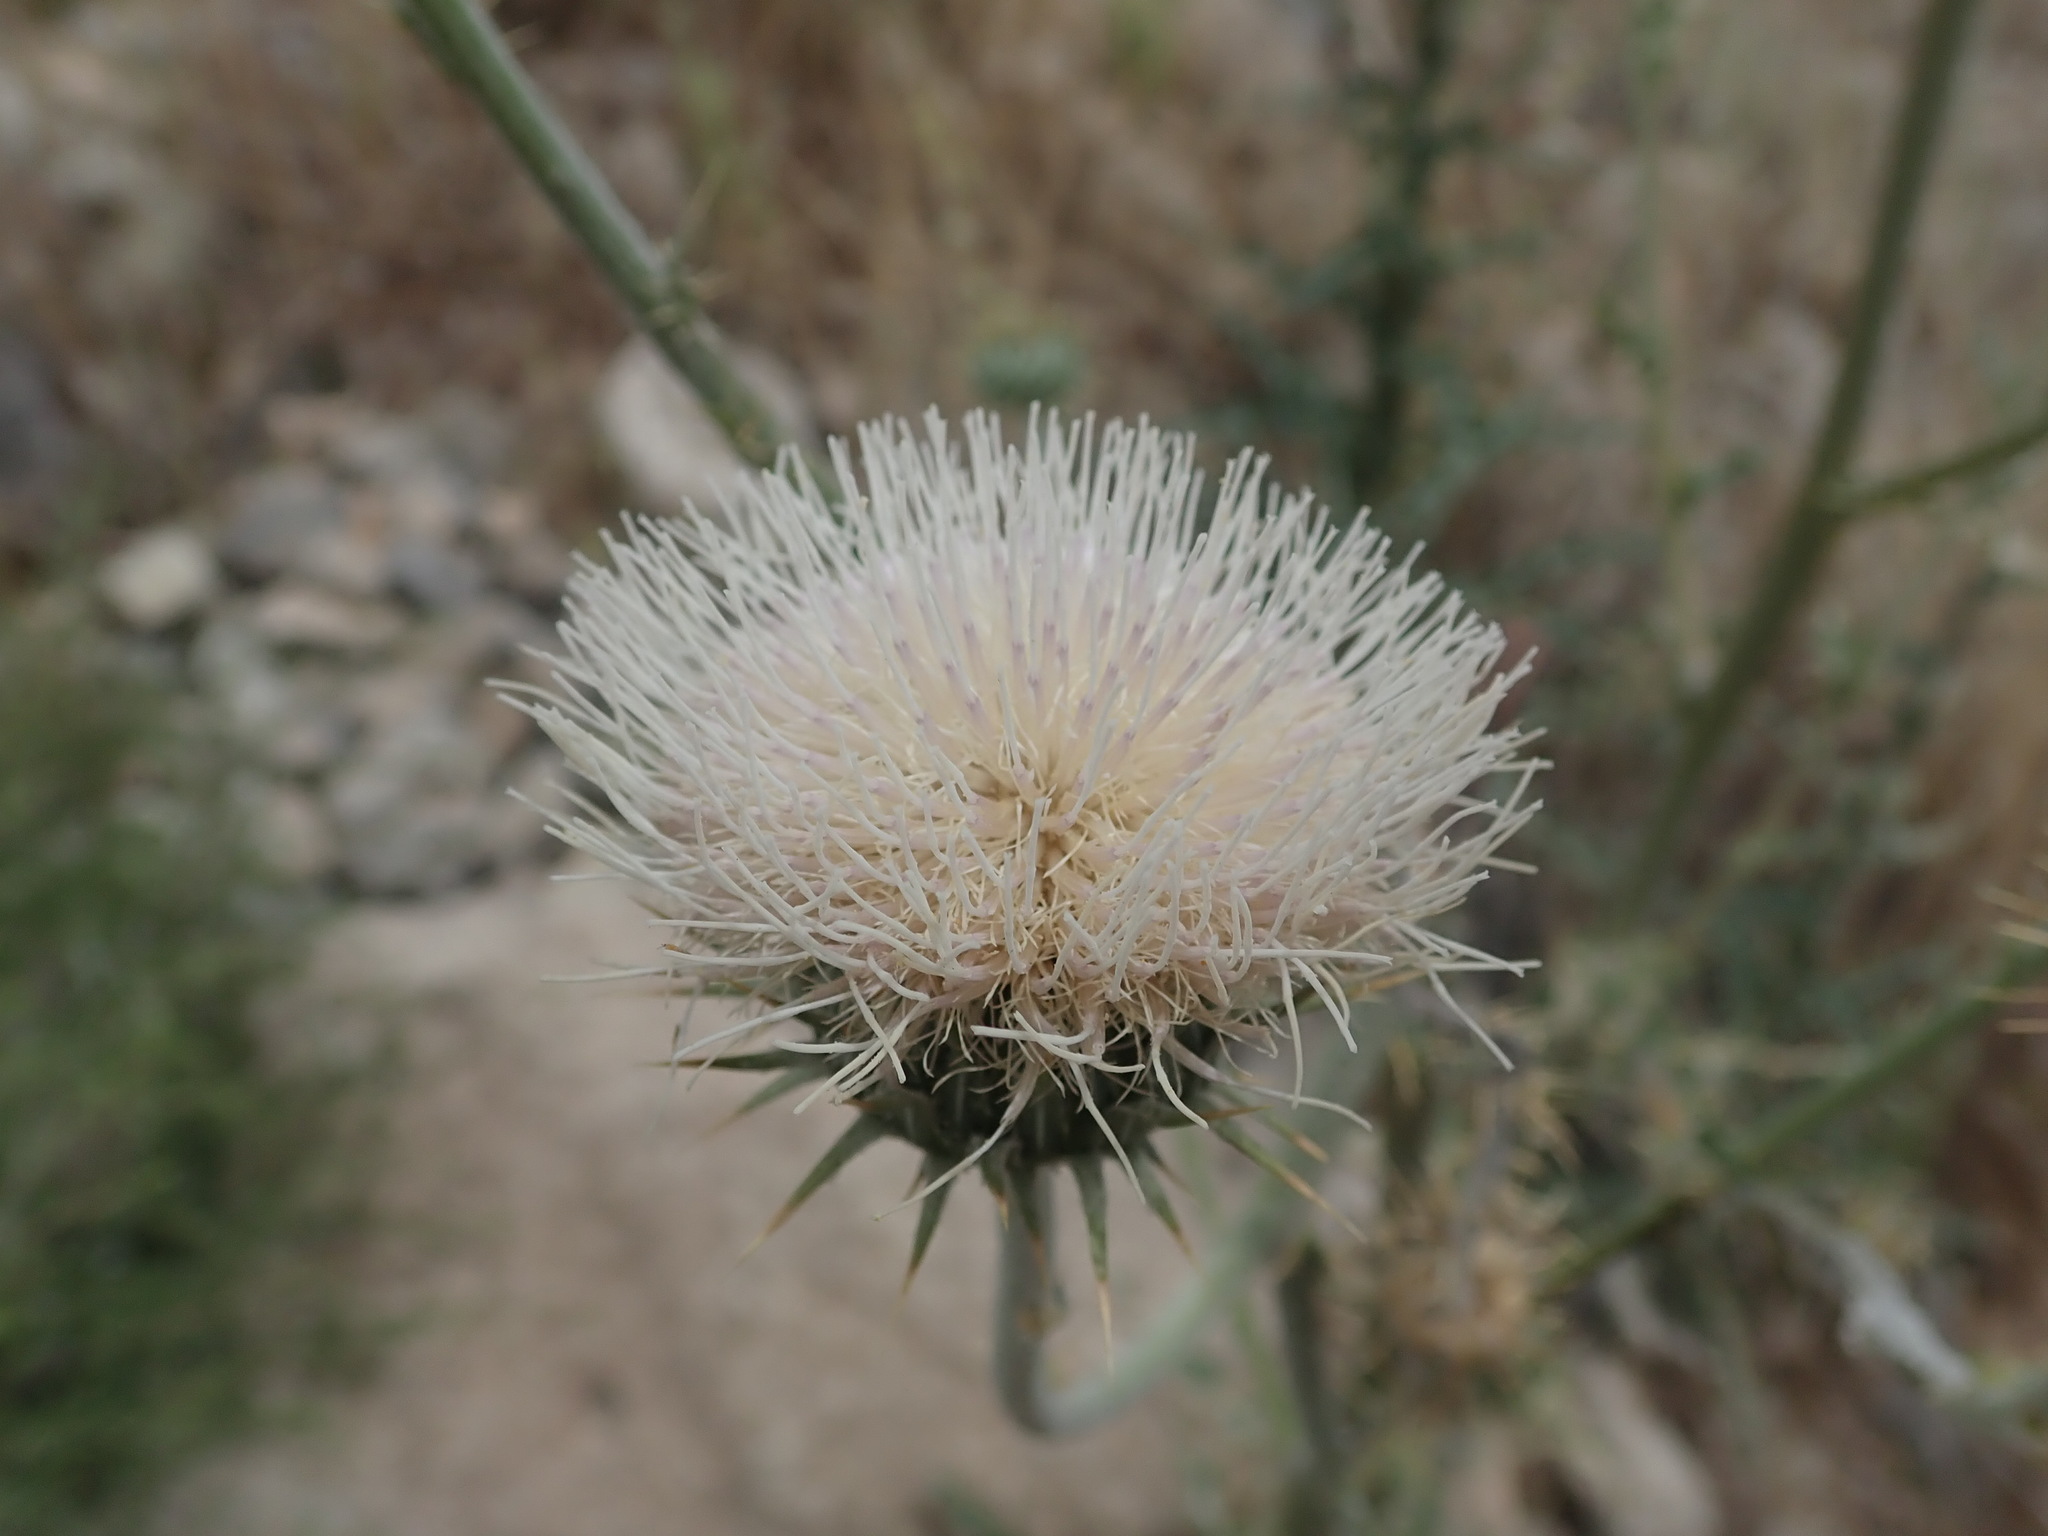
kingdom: Plantae
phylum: Tracheophyta
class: Magnoliopsida
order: Asterales
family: Asteraceae
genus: Cirsium
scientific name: Cirsium neomexicanum
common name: New mexico thistle
